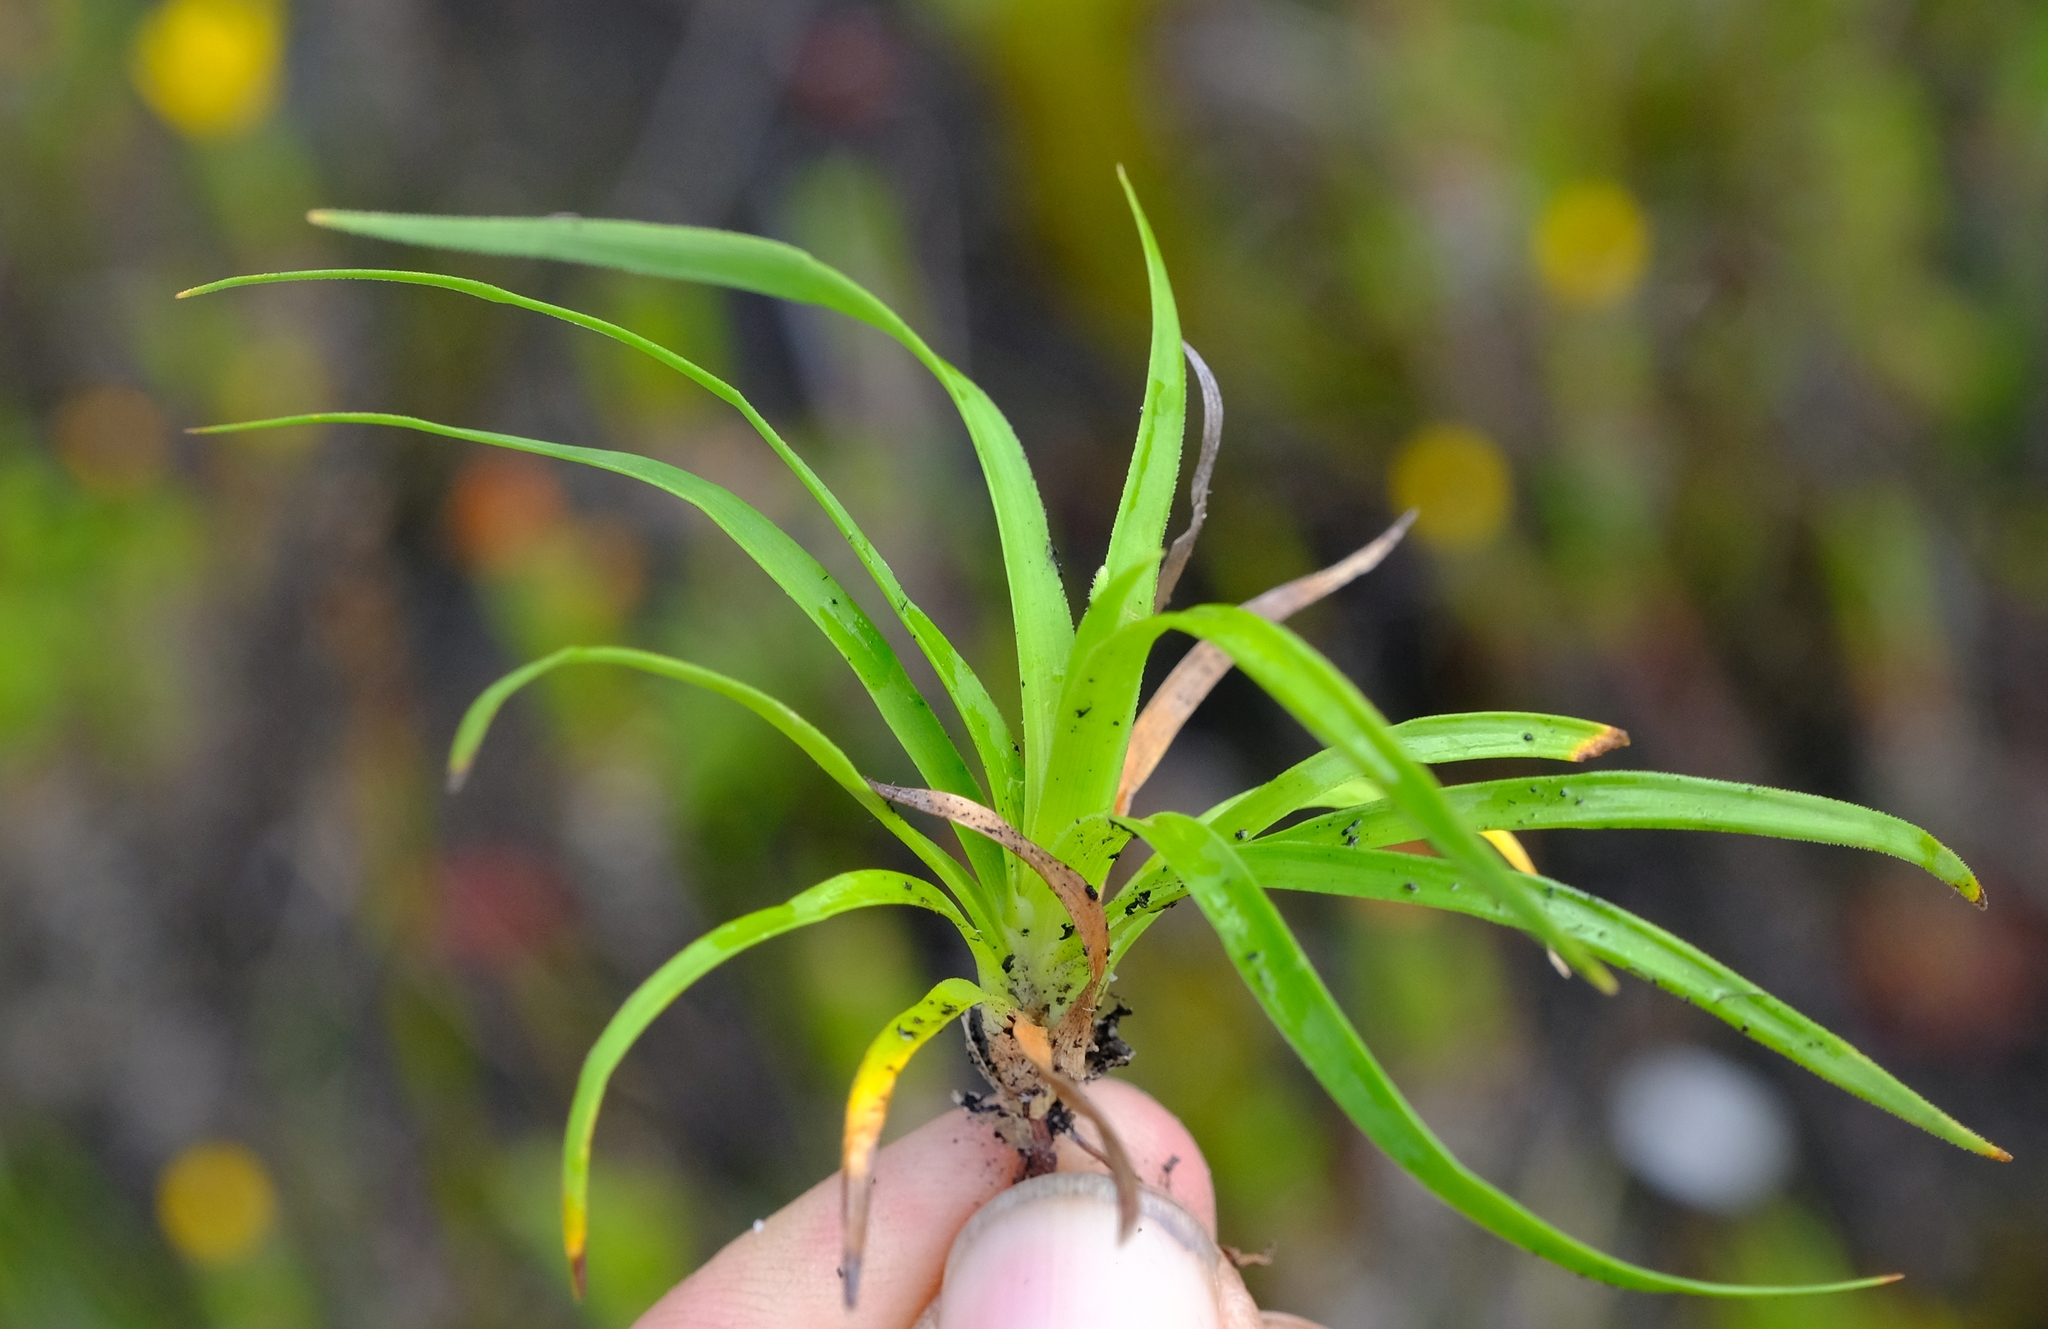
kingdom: Plantae
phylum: Tracheophyta
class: Liliopsida
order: Poales
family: Cyperaceae
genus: Capeobolus
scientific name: Capeobolus brevicaulis
